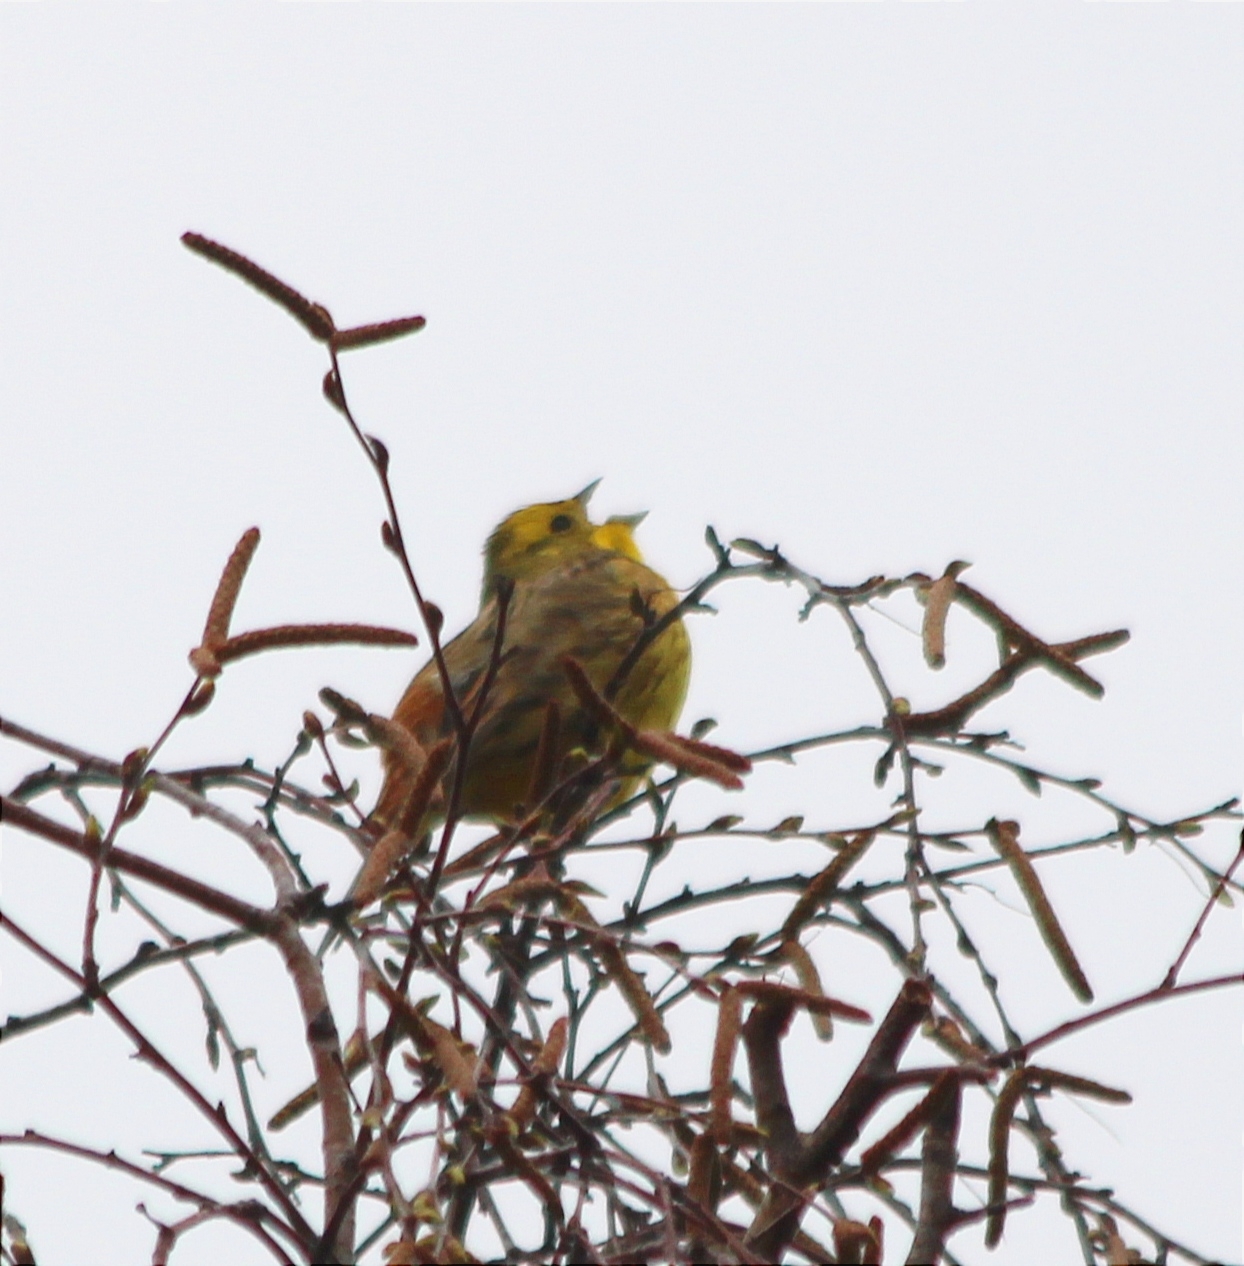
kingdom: Animalia
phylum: Chordata
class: Aves
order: Passeriformes
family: Emberizidae
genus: Emberiza
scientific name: Emberiza citrinella
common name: Yellowhammer
